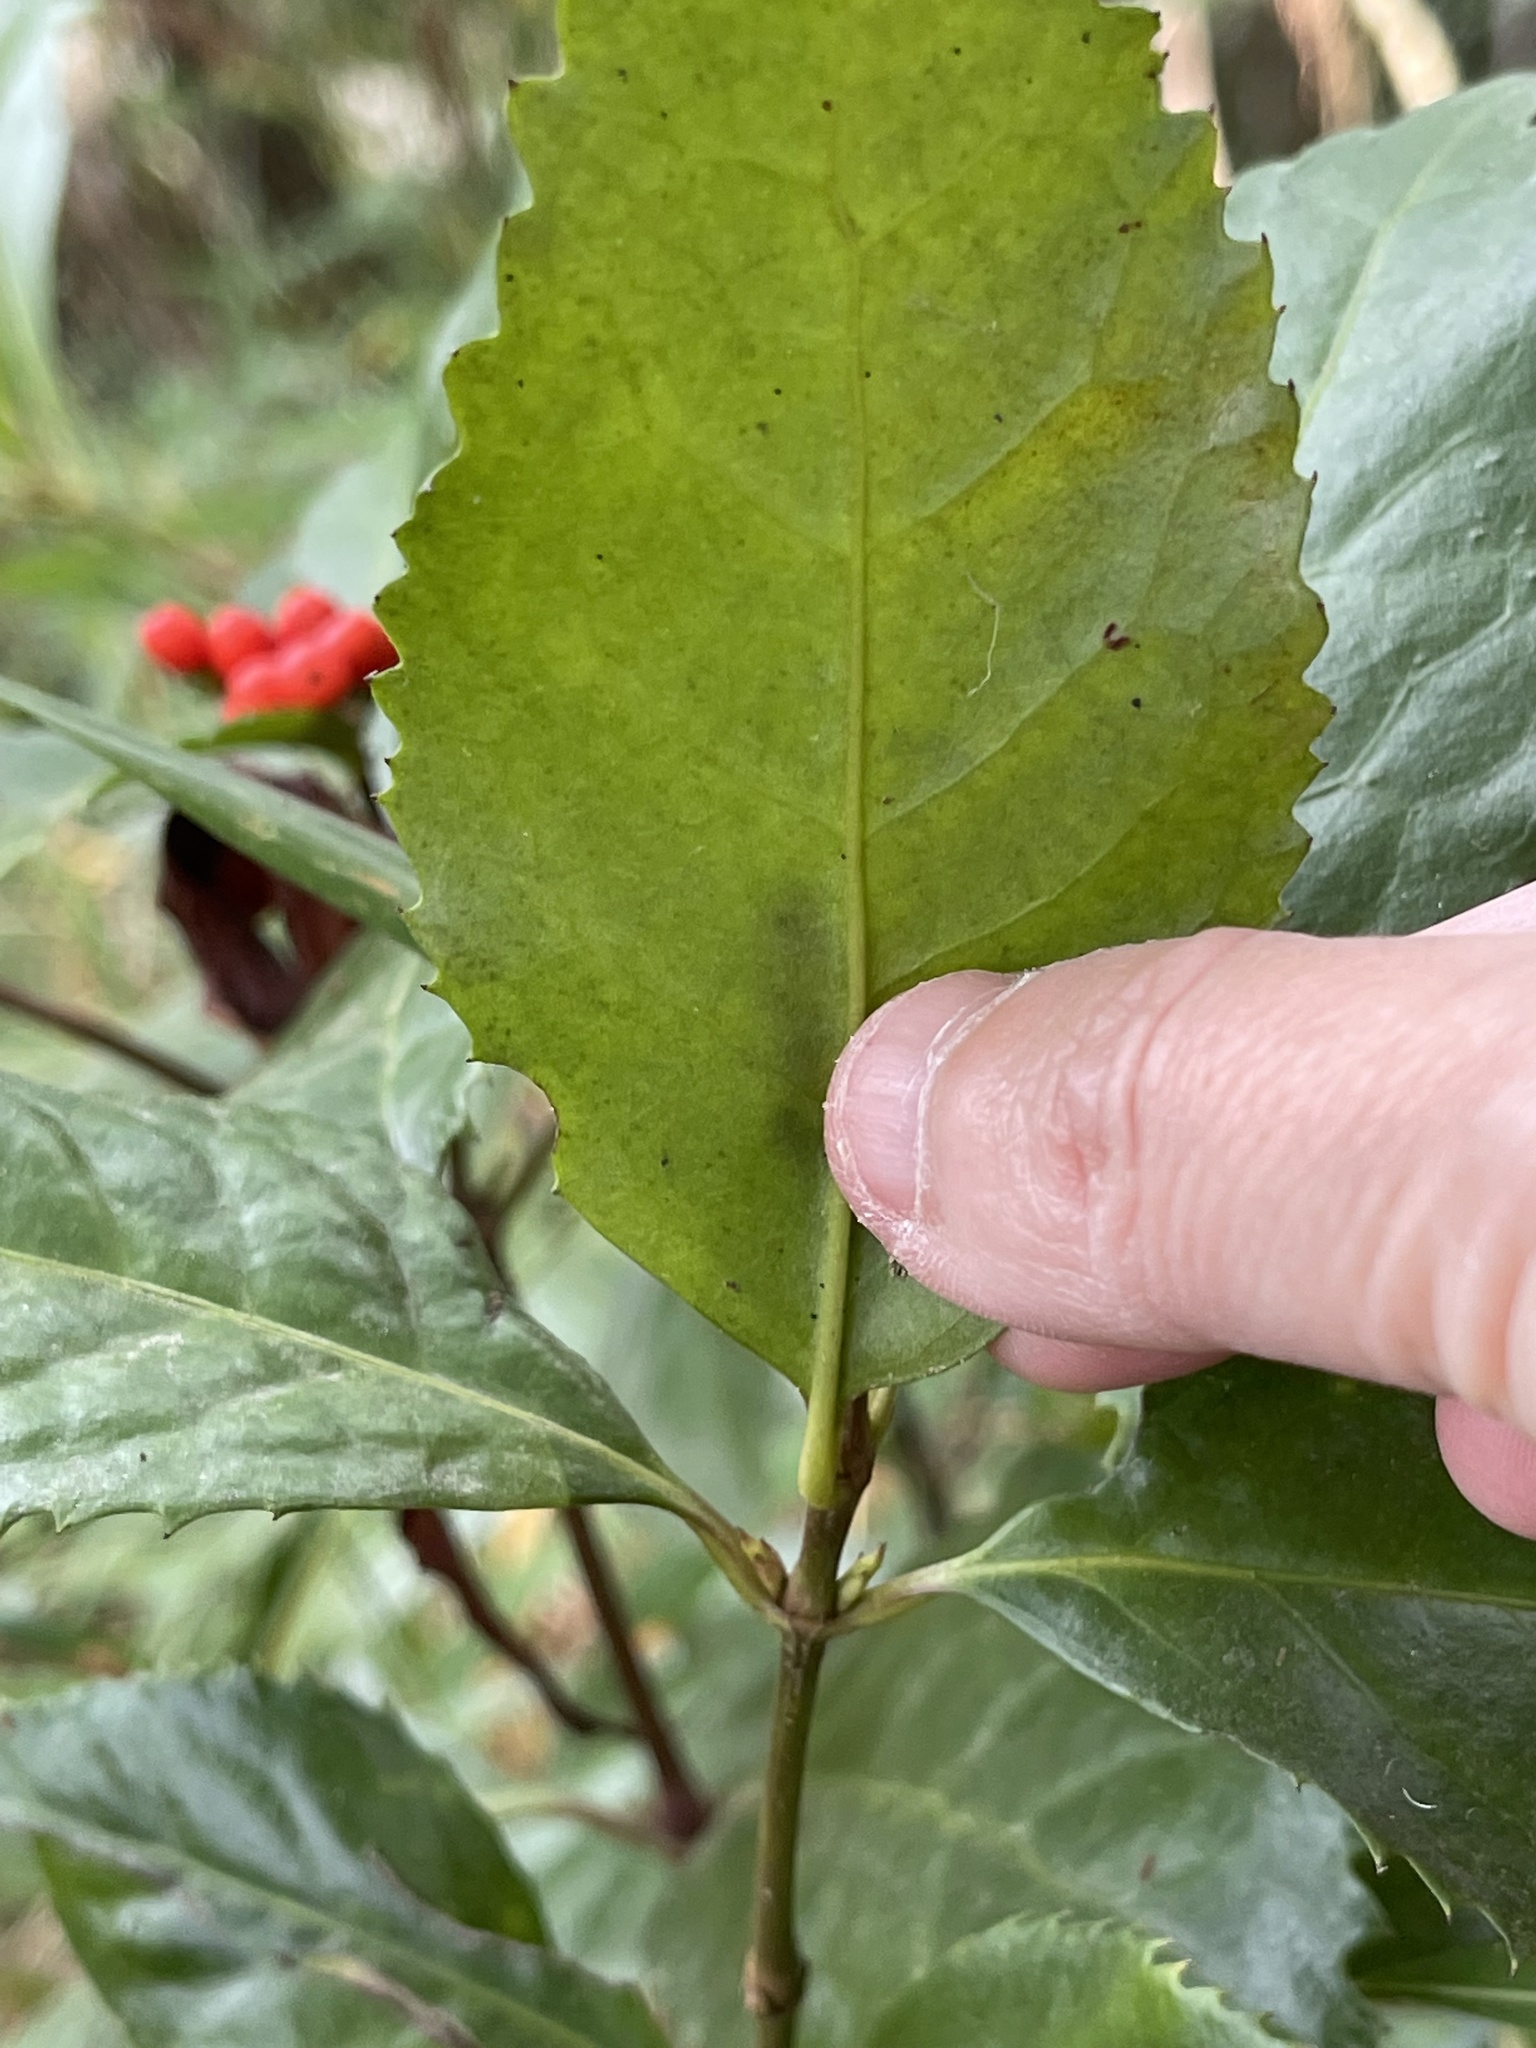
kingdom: Plantae
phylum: Tracheophyta
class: Magnoliopsida
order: Chloranthales
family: Chloranthaceae
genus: Sarcandra
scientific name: Sarcandra glabra
